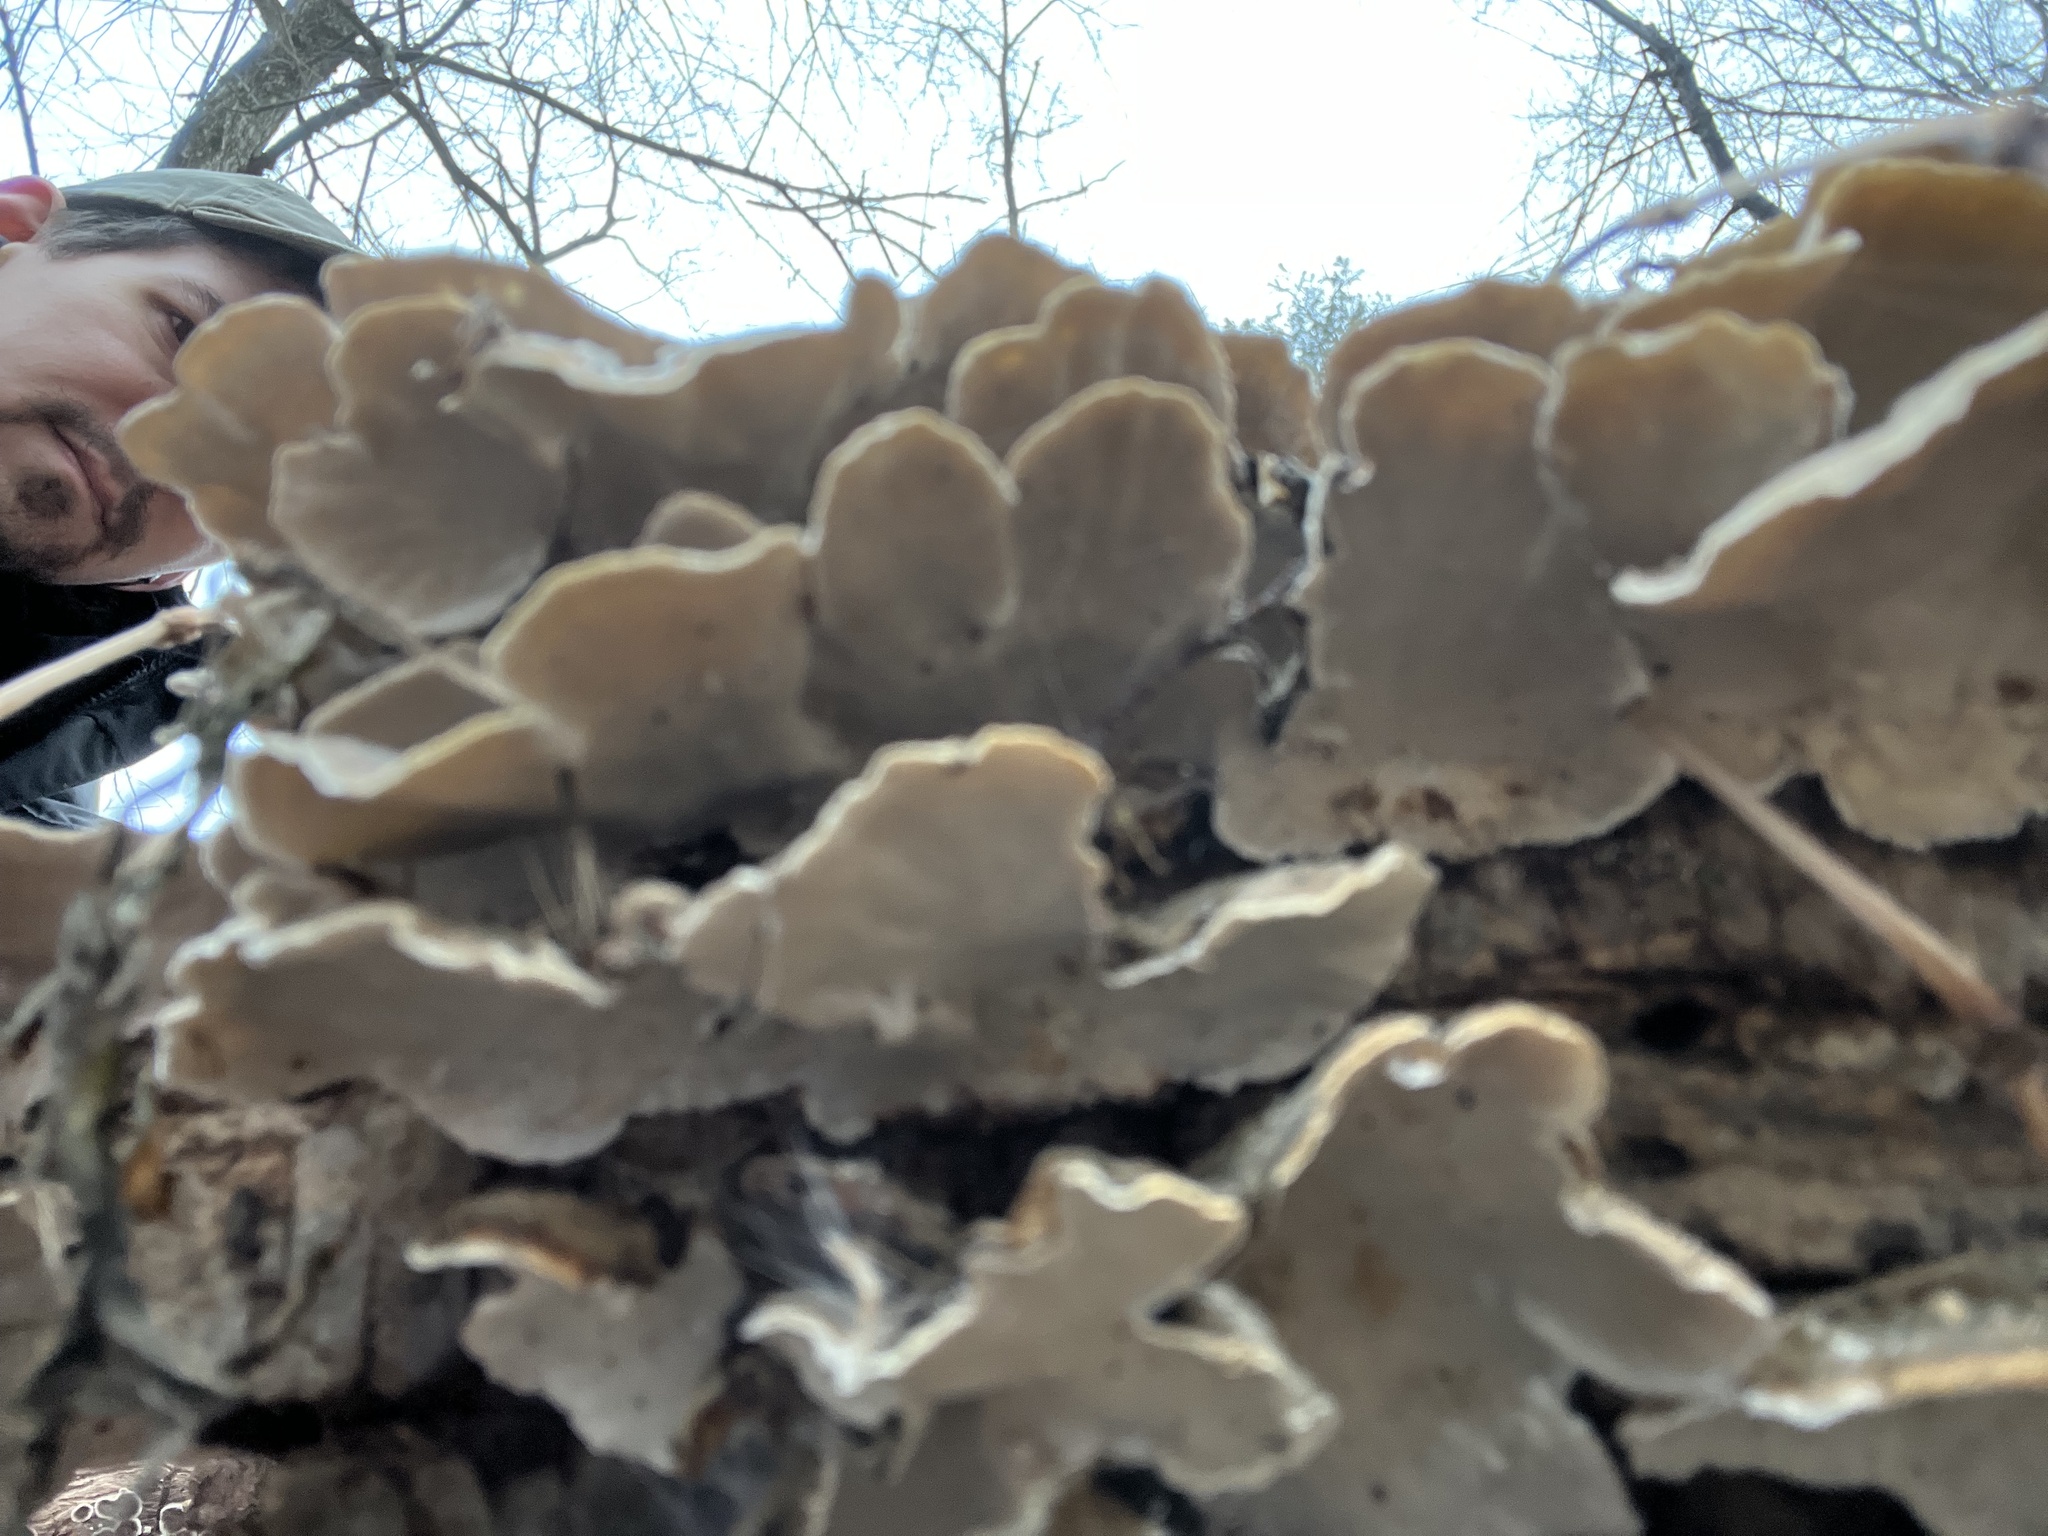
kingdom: Fungi
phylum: Basidiomycota
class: Agaricomycetes
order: Polyporales
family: Polyporaceae
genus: Trametes
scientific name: Trametes versicolor
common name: Turkeytail
